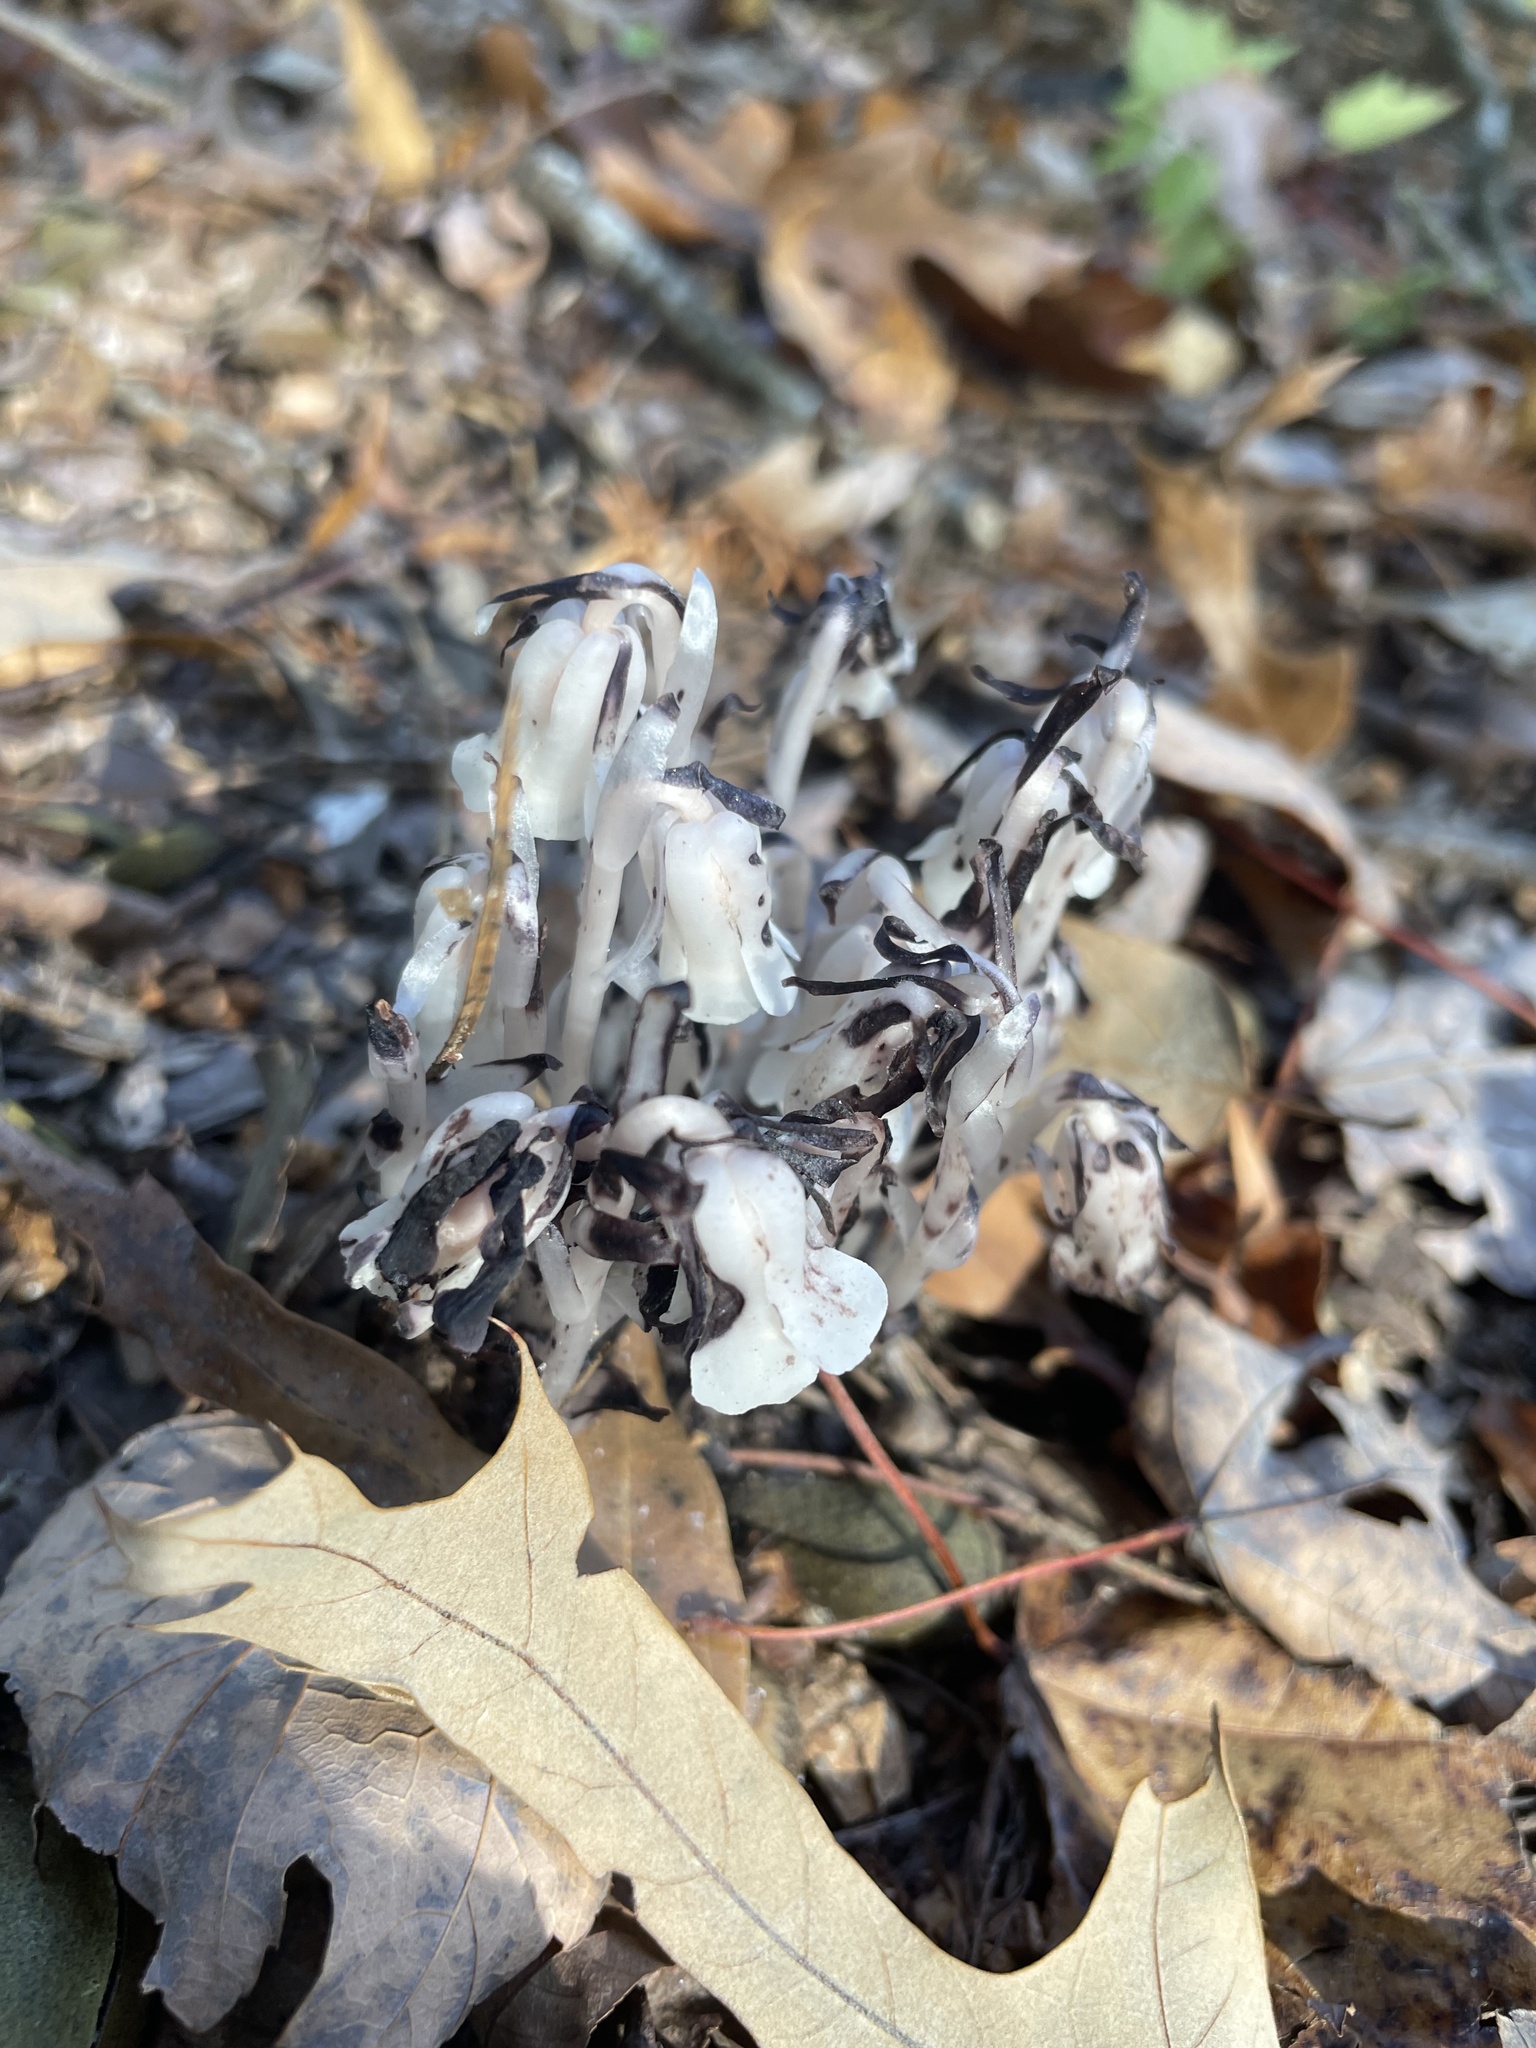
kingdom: Plantae
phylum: Tracheophyta
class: Magnoliopsida
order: Ericales
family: Ericaceae
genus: Monotropa
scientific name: Monotropa uniflora
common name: Convulsion root
